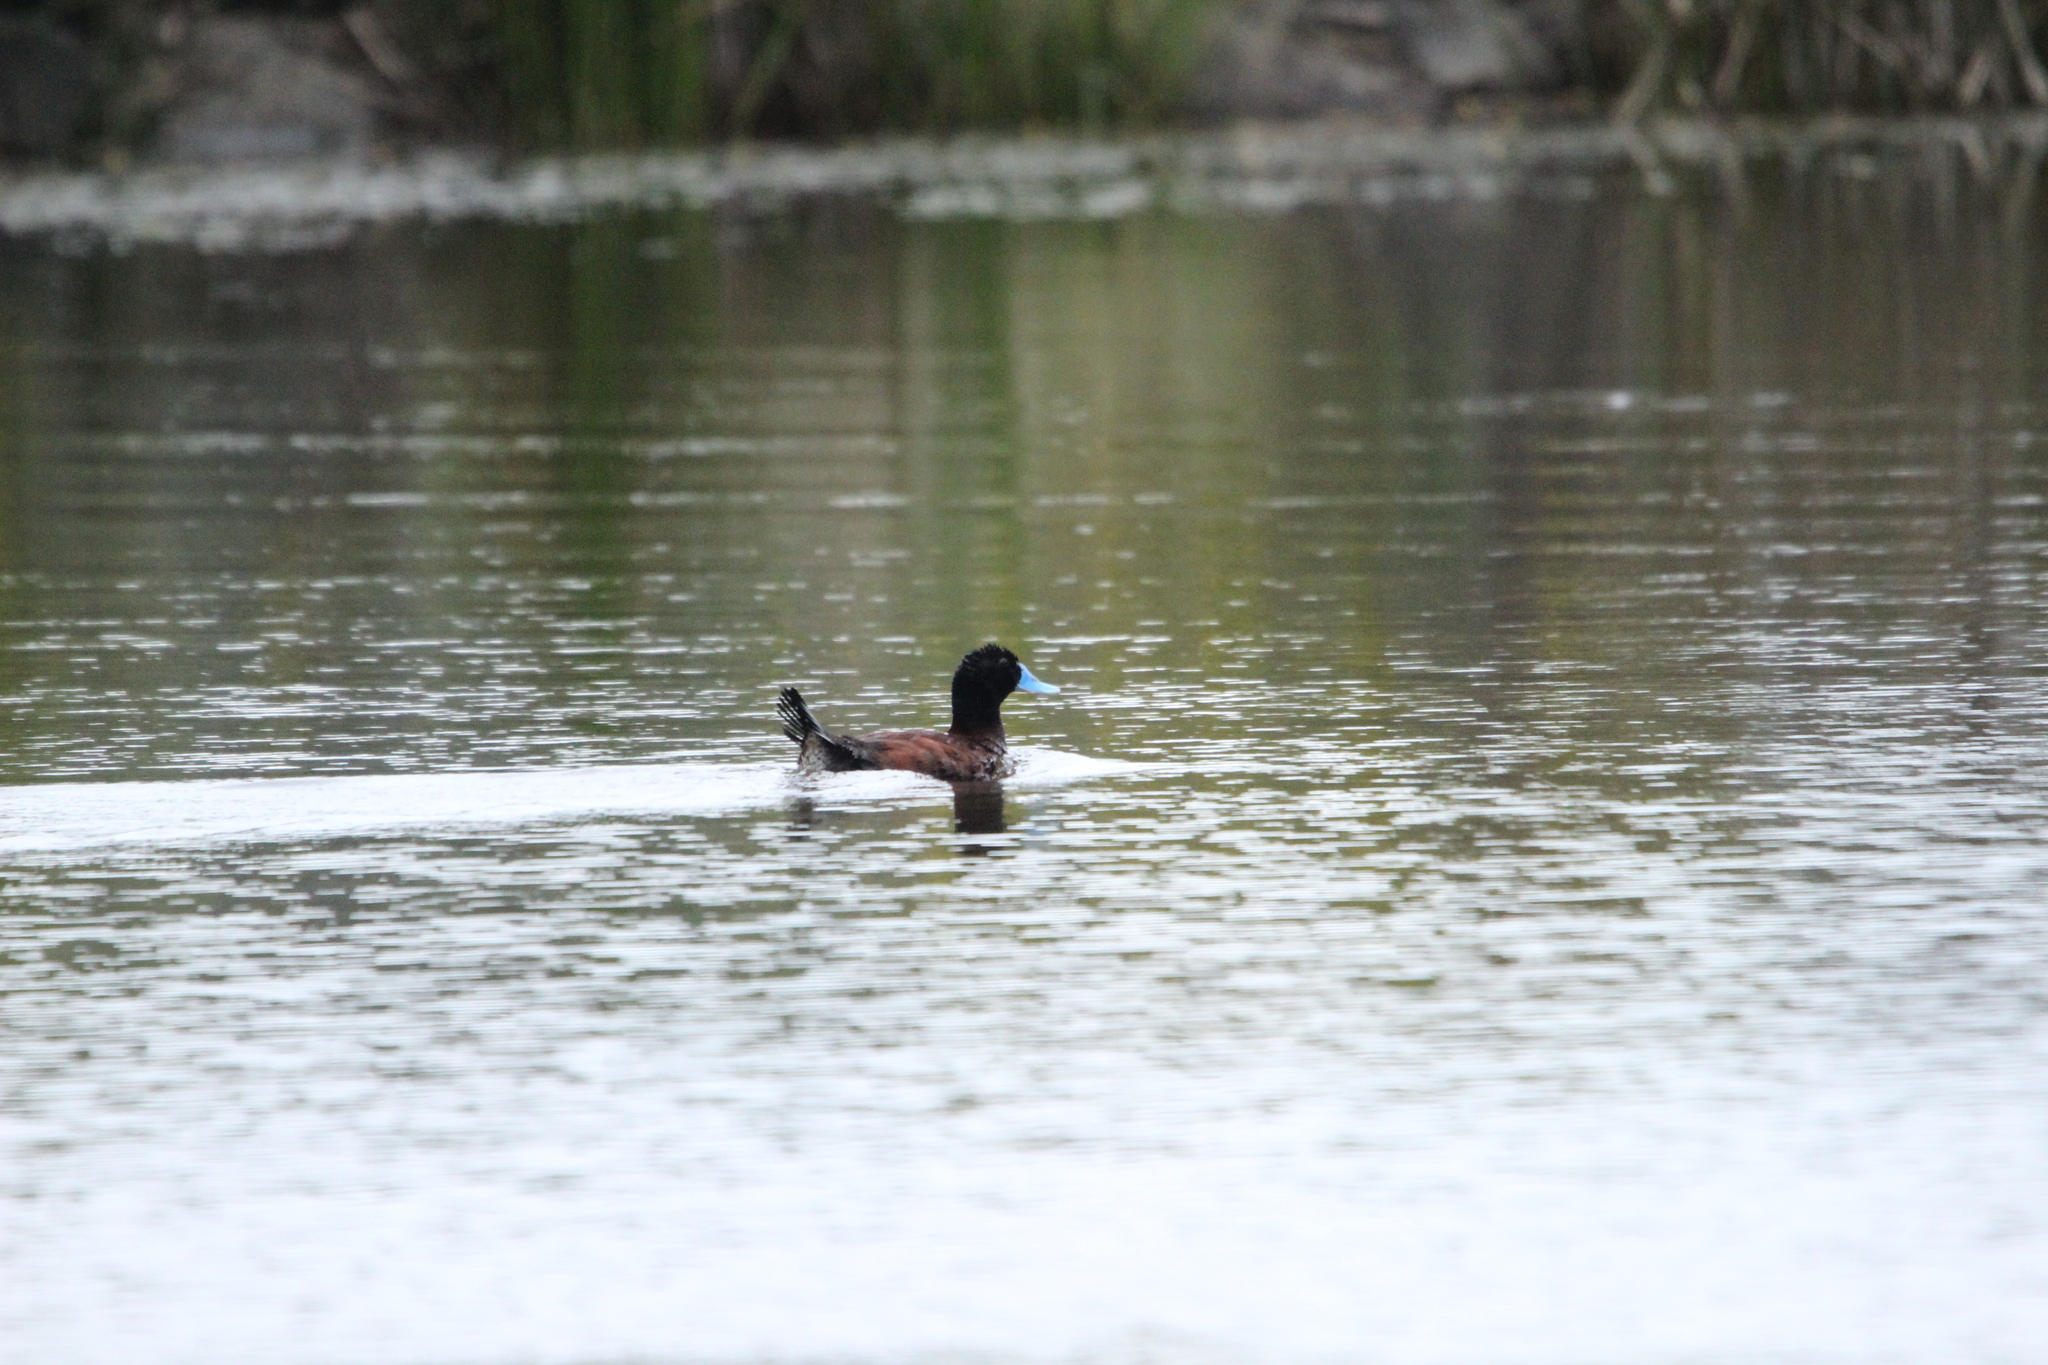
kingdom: Animalia
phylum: Chordata
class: Aves
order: Anseriformes
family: Anatidae
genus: Oxyura
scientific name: Oxyura australis
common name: Blue-billed duck
